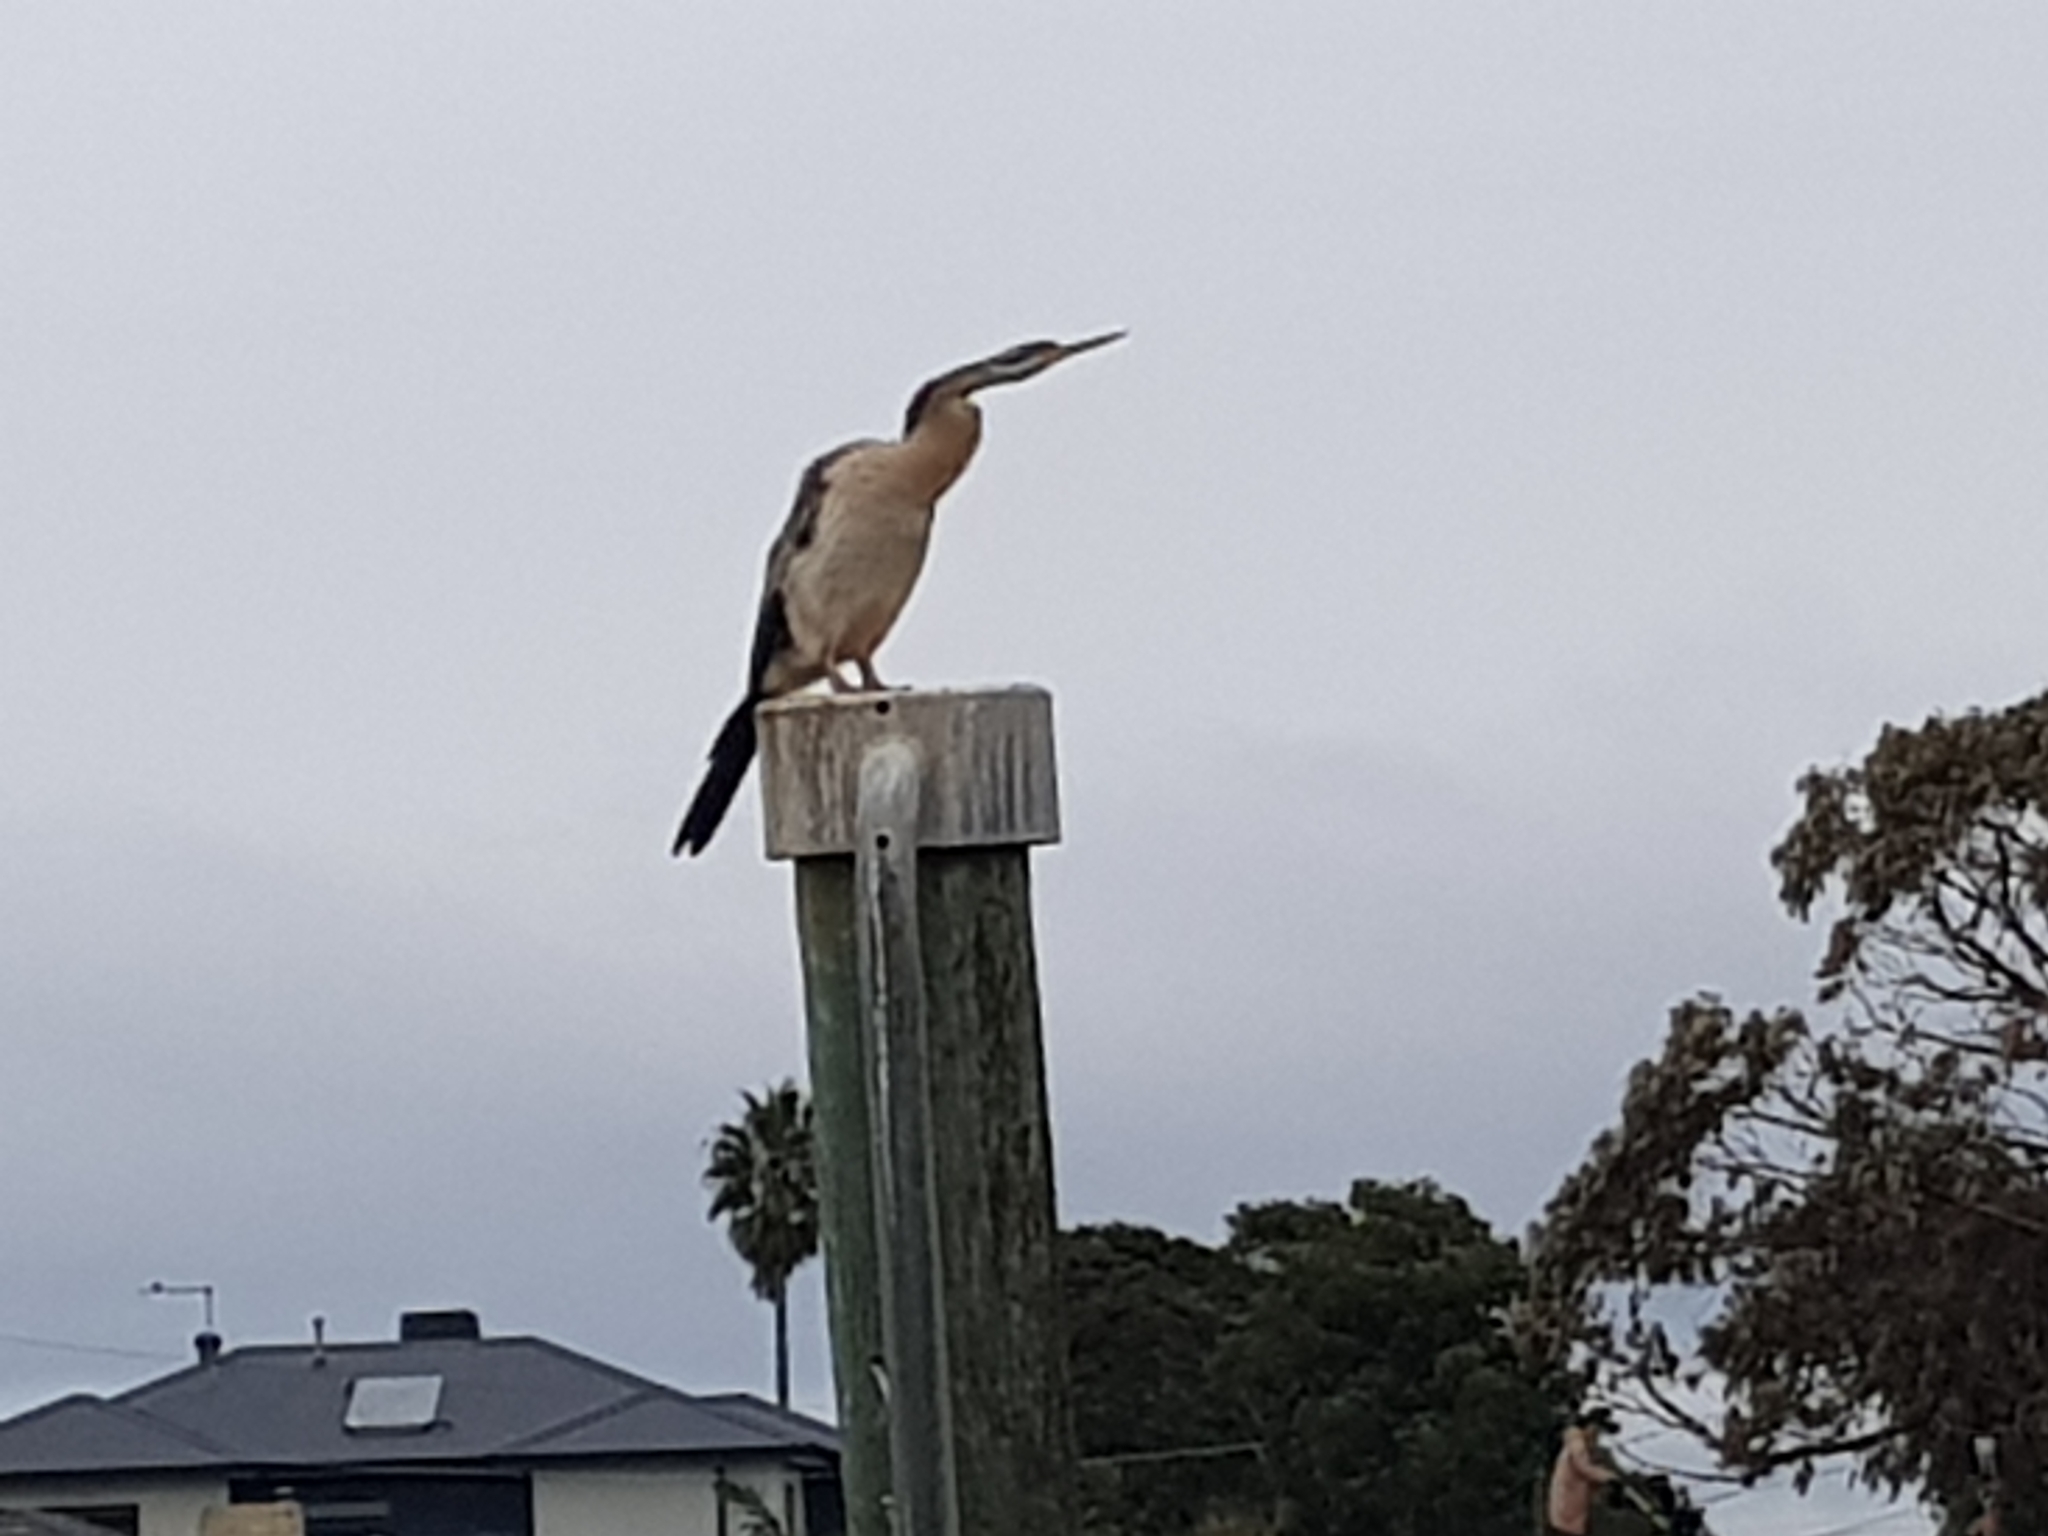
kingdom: Animalia
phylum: Chordata
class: Aves
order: Suliformes
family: Anhingidae
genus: Anhinga
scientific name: Anhinga novaehollandiae
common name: Australasian darter
